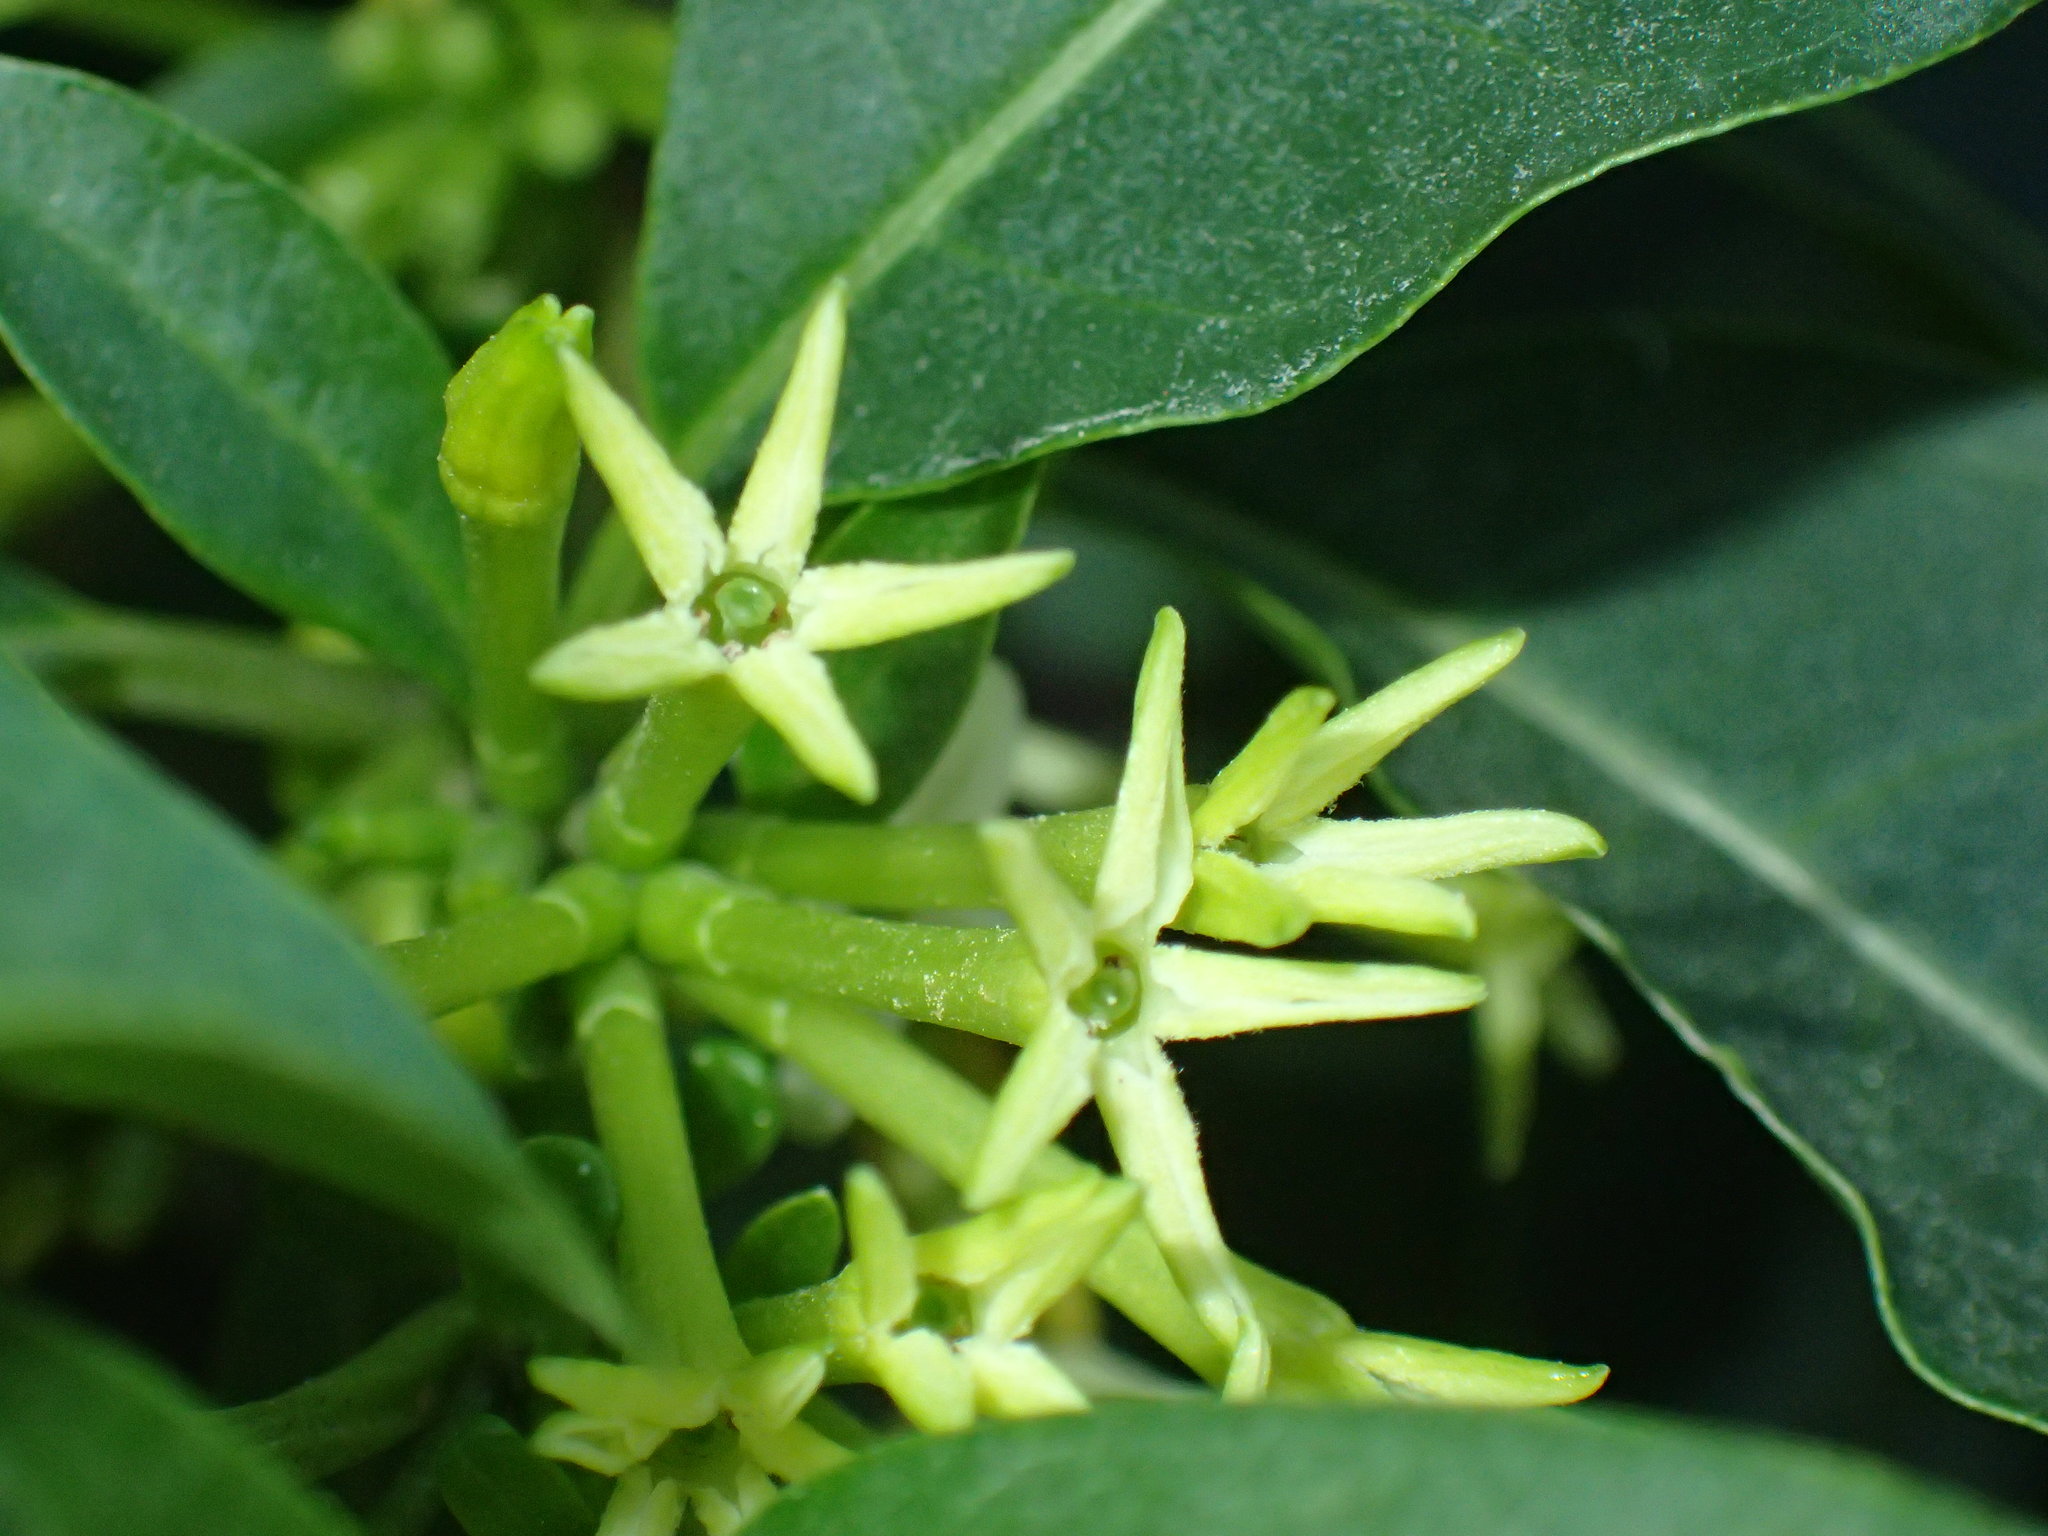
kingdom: Plantae
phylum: Tracheophyta
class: Magnoliopsida
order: Solanales
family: Solanaceae
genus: Cestrum
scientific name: Cestrum laevigatum
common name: Inkberry
